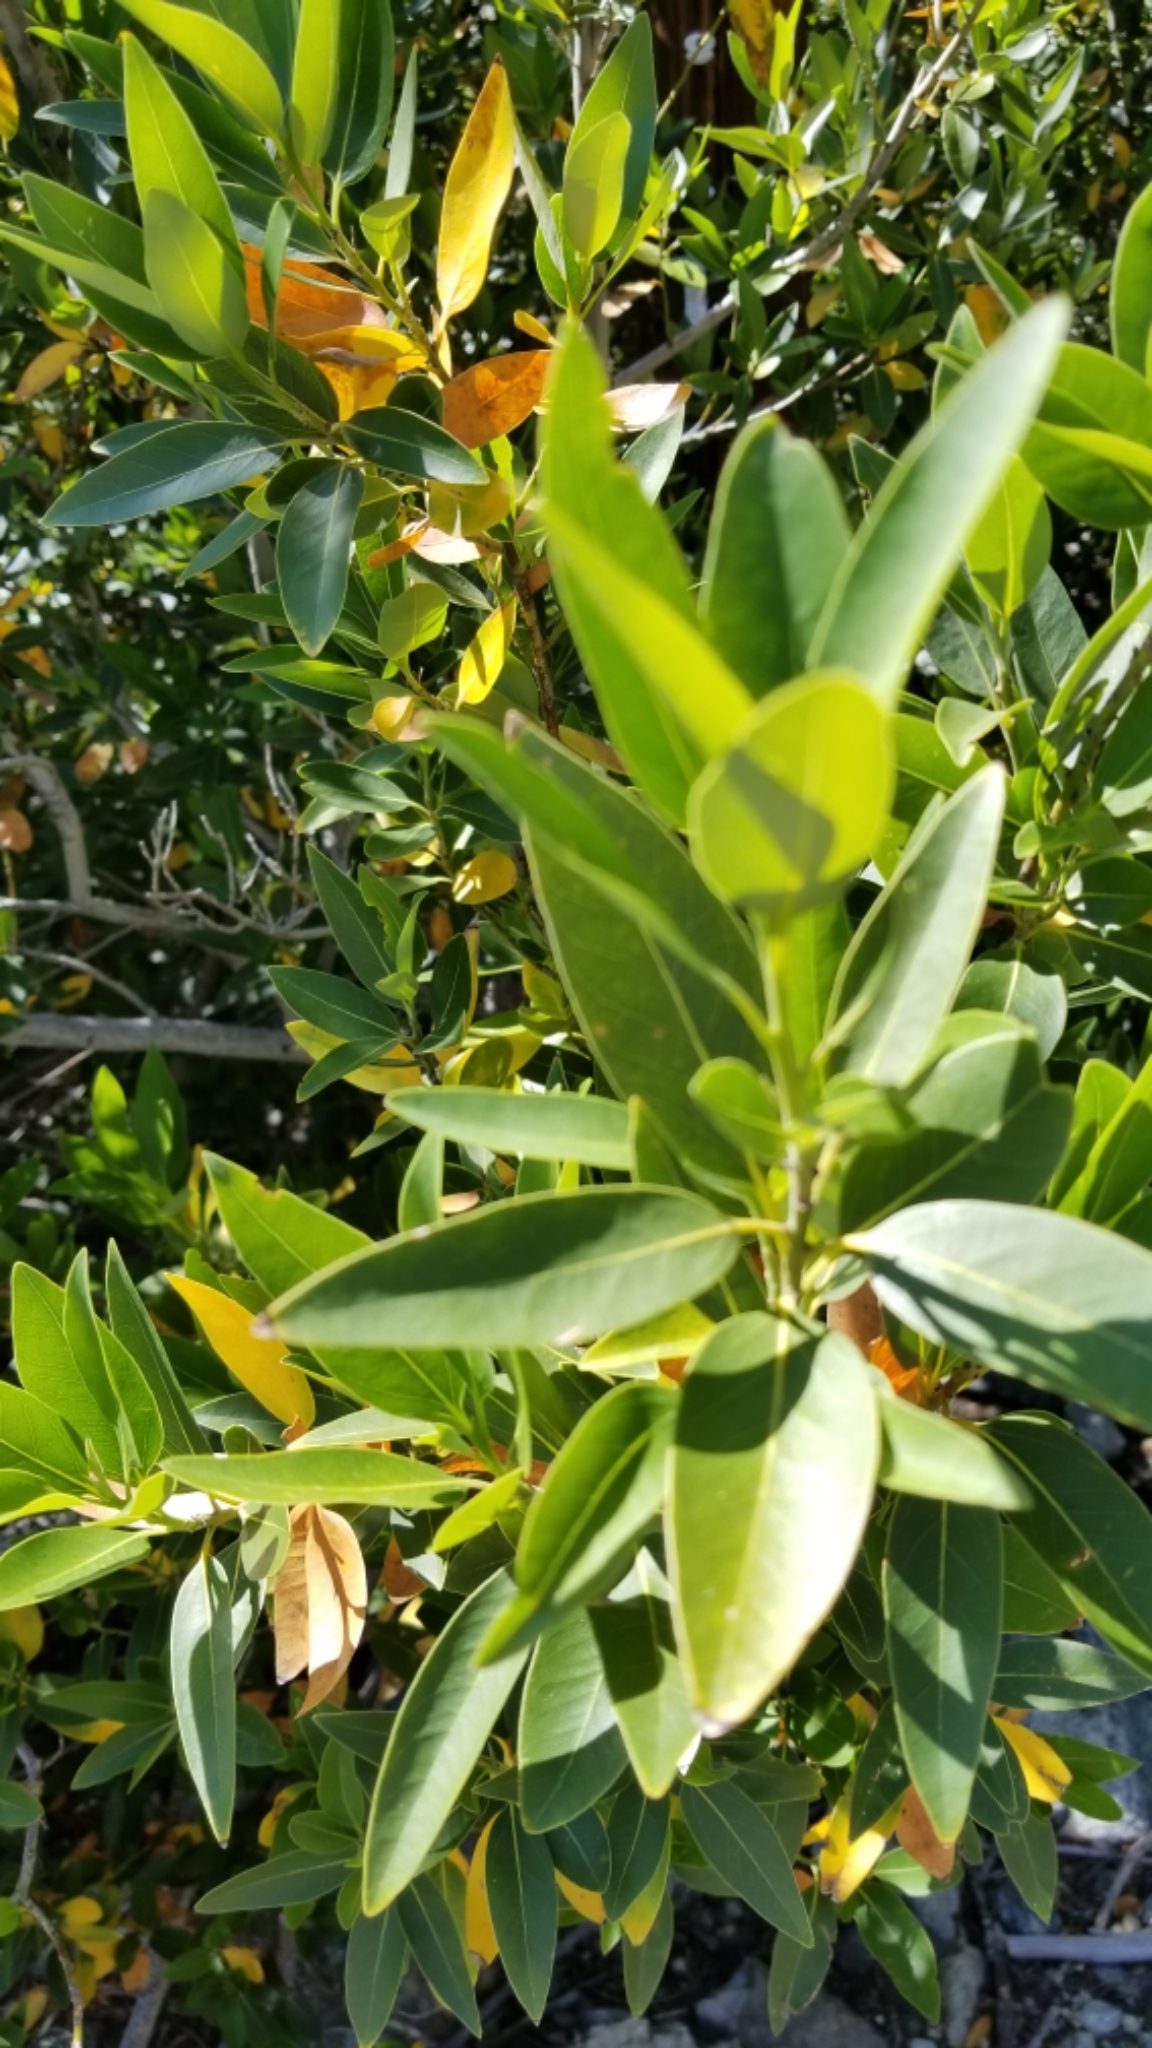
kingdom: Plantae
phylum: Tracheophyta
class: Magnoliopsida
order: Laurales
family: Lauraceae
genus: Umbellularia
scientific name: Umbellularia californica
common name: California bay
